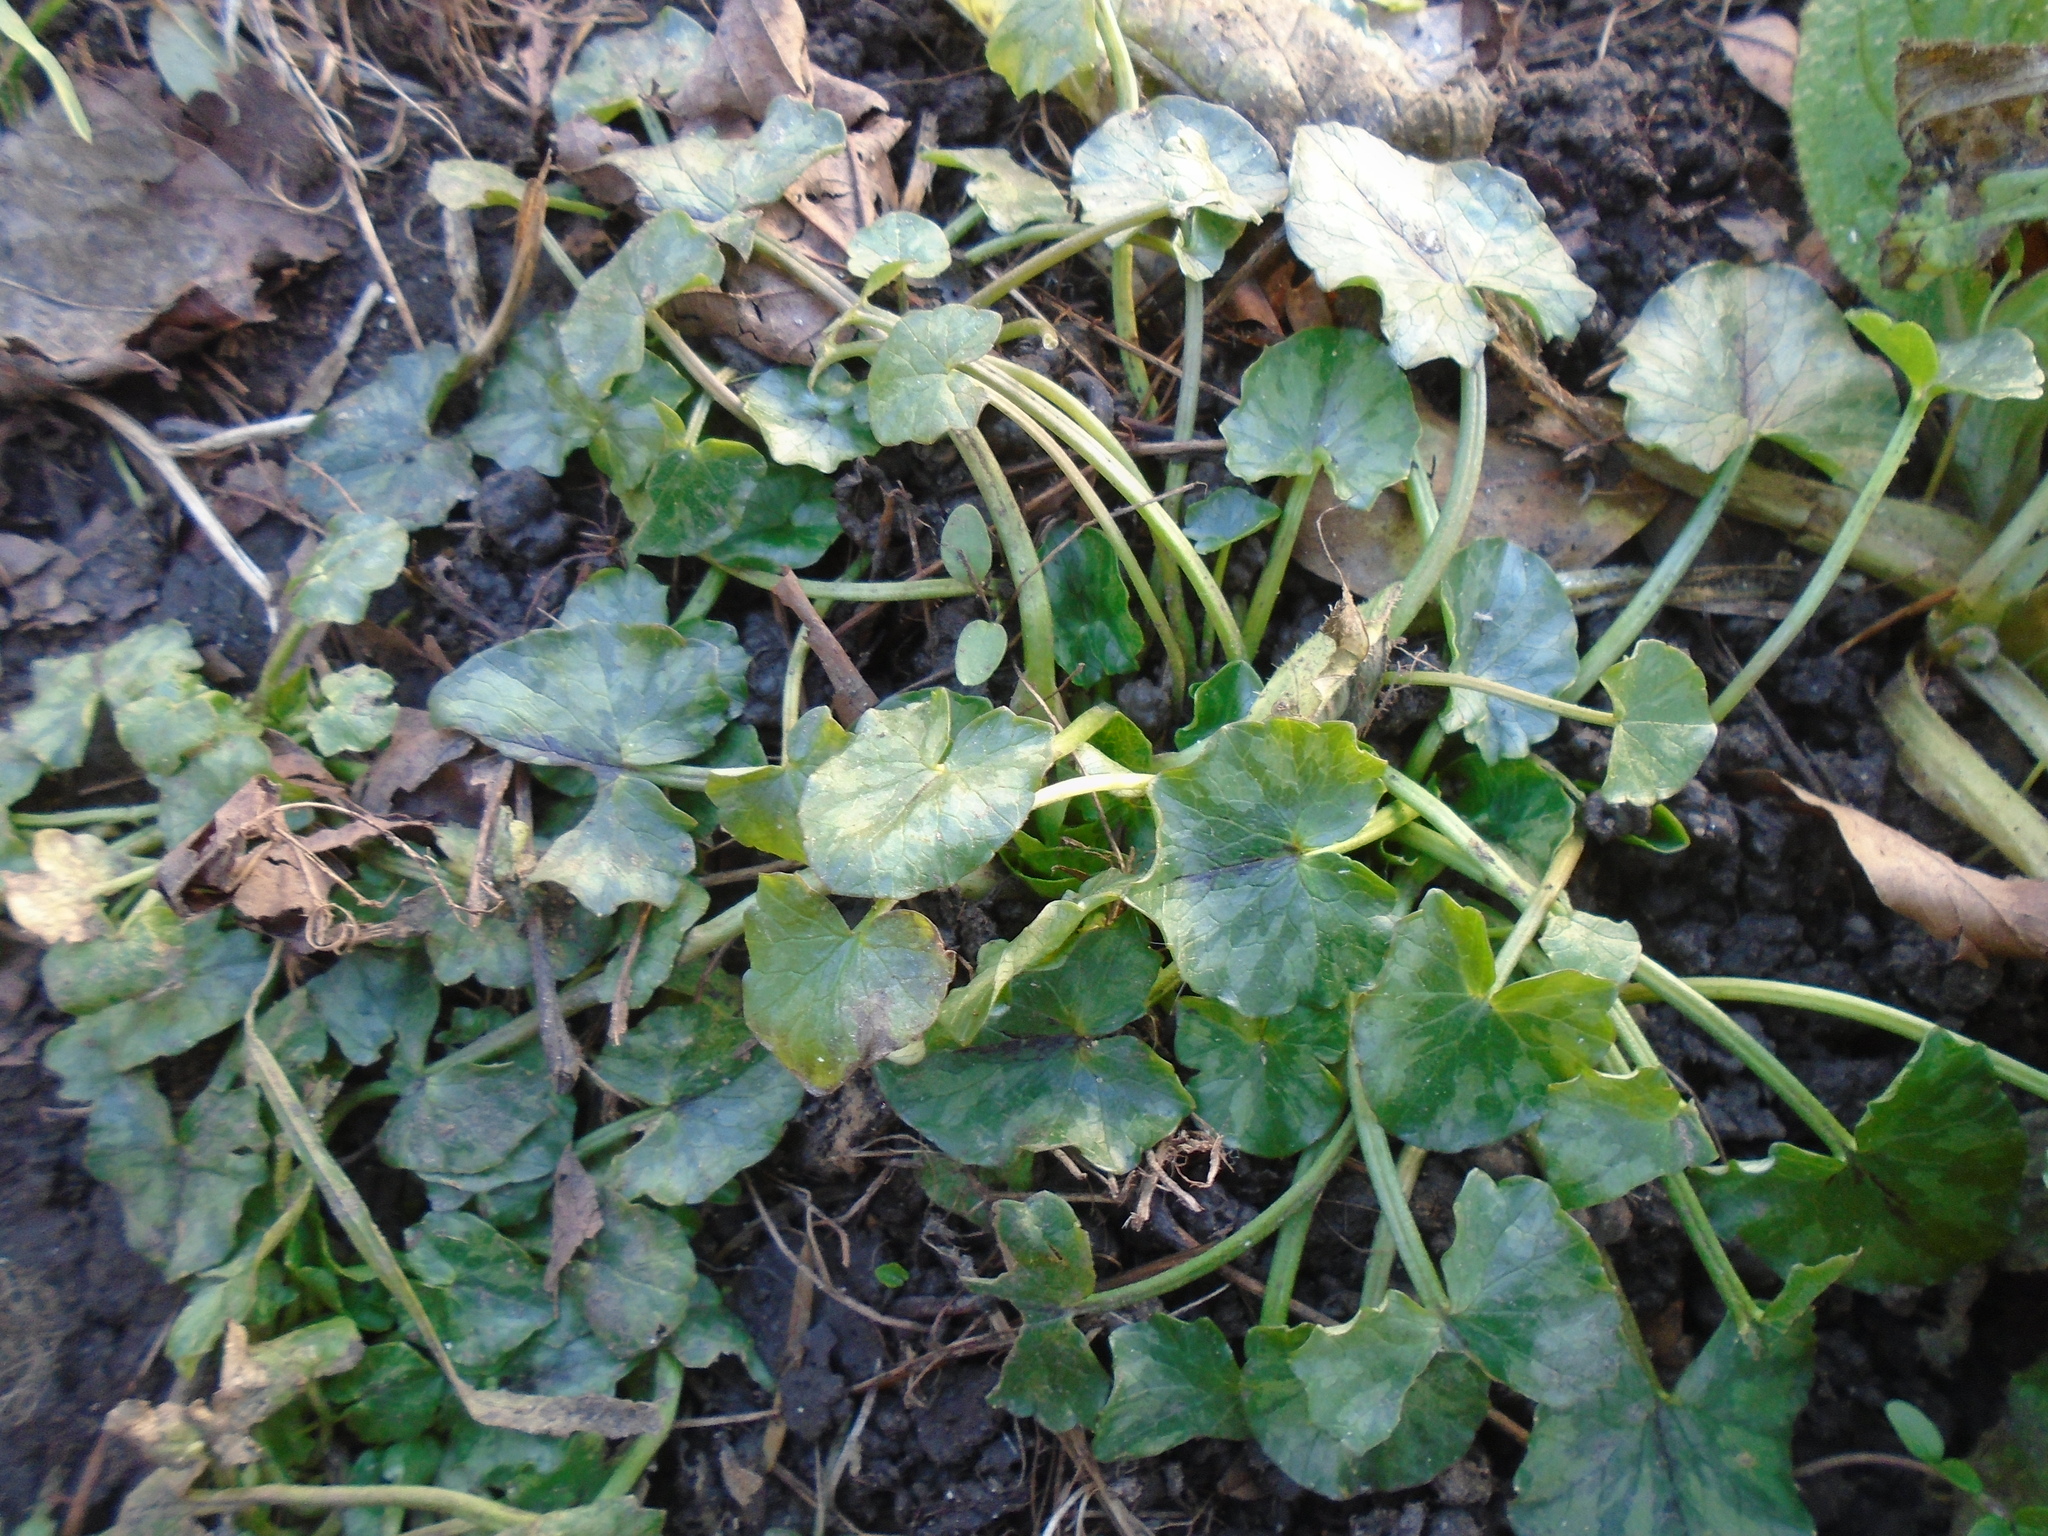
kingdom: Plantae
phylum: Tracheophyta
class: Magnoliopsida
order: Ranunculales
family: Ranunculaceae
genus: Ficaria
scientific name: Ficaria verna
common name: Lesser celandine
